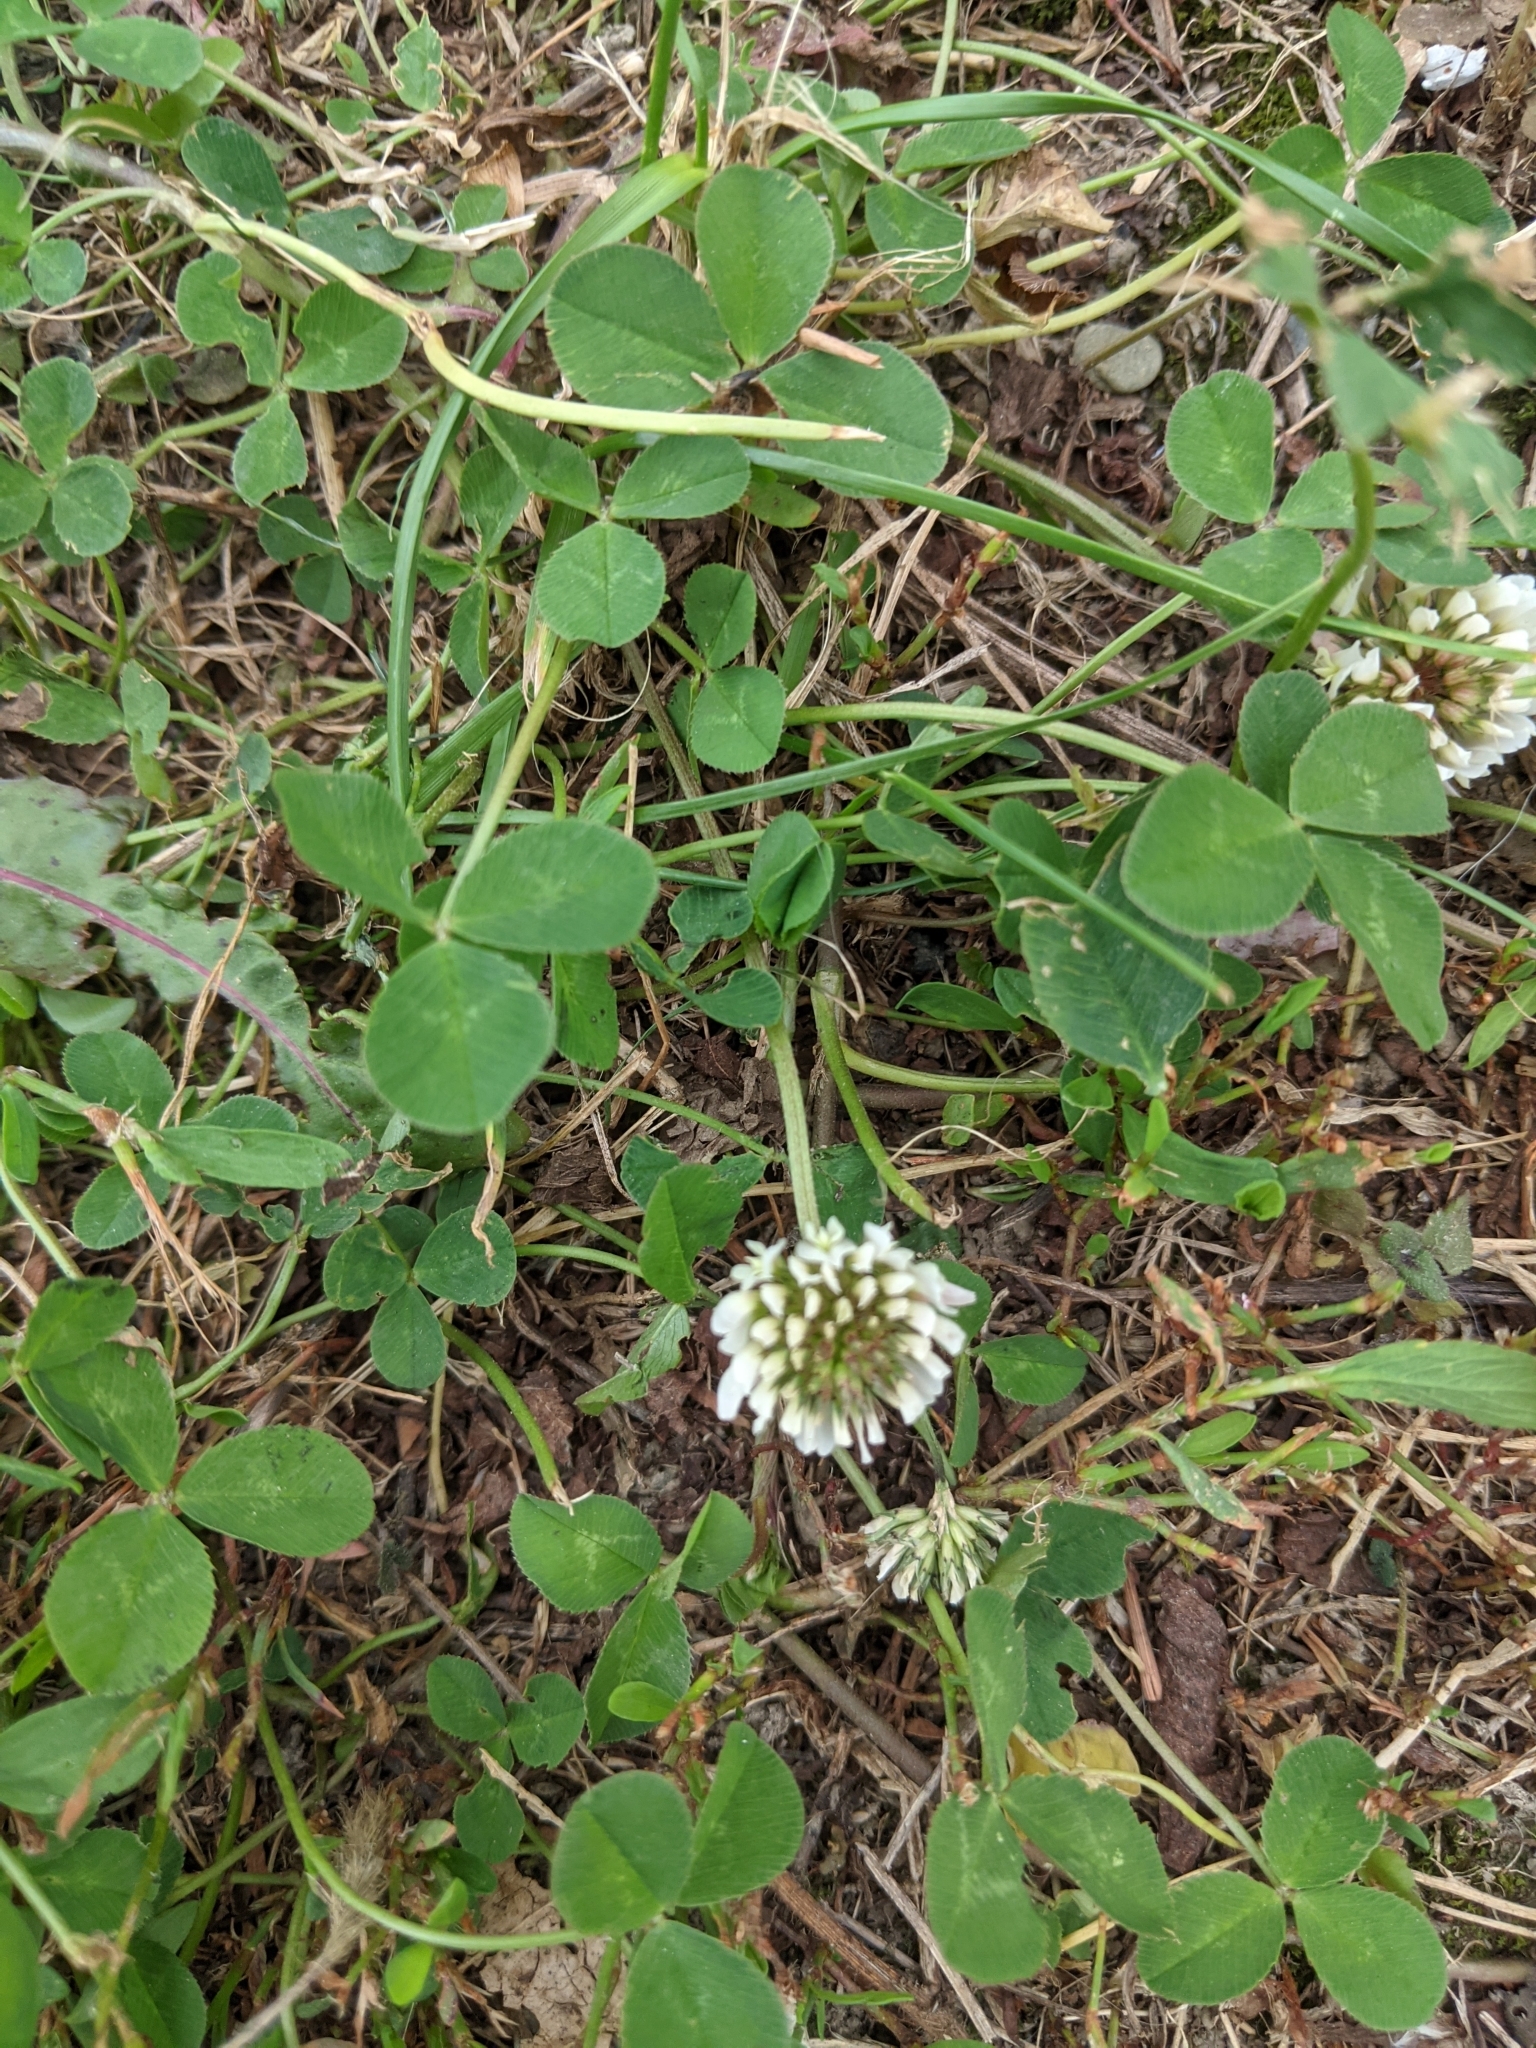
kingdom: Plantae
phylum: Tracheophyta
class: Magnoliopsida
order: Fabales
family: Fabaceae
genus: Trifolium
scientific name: Trifolium repens
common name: White clover
